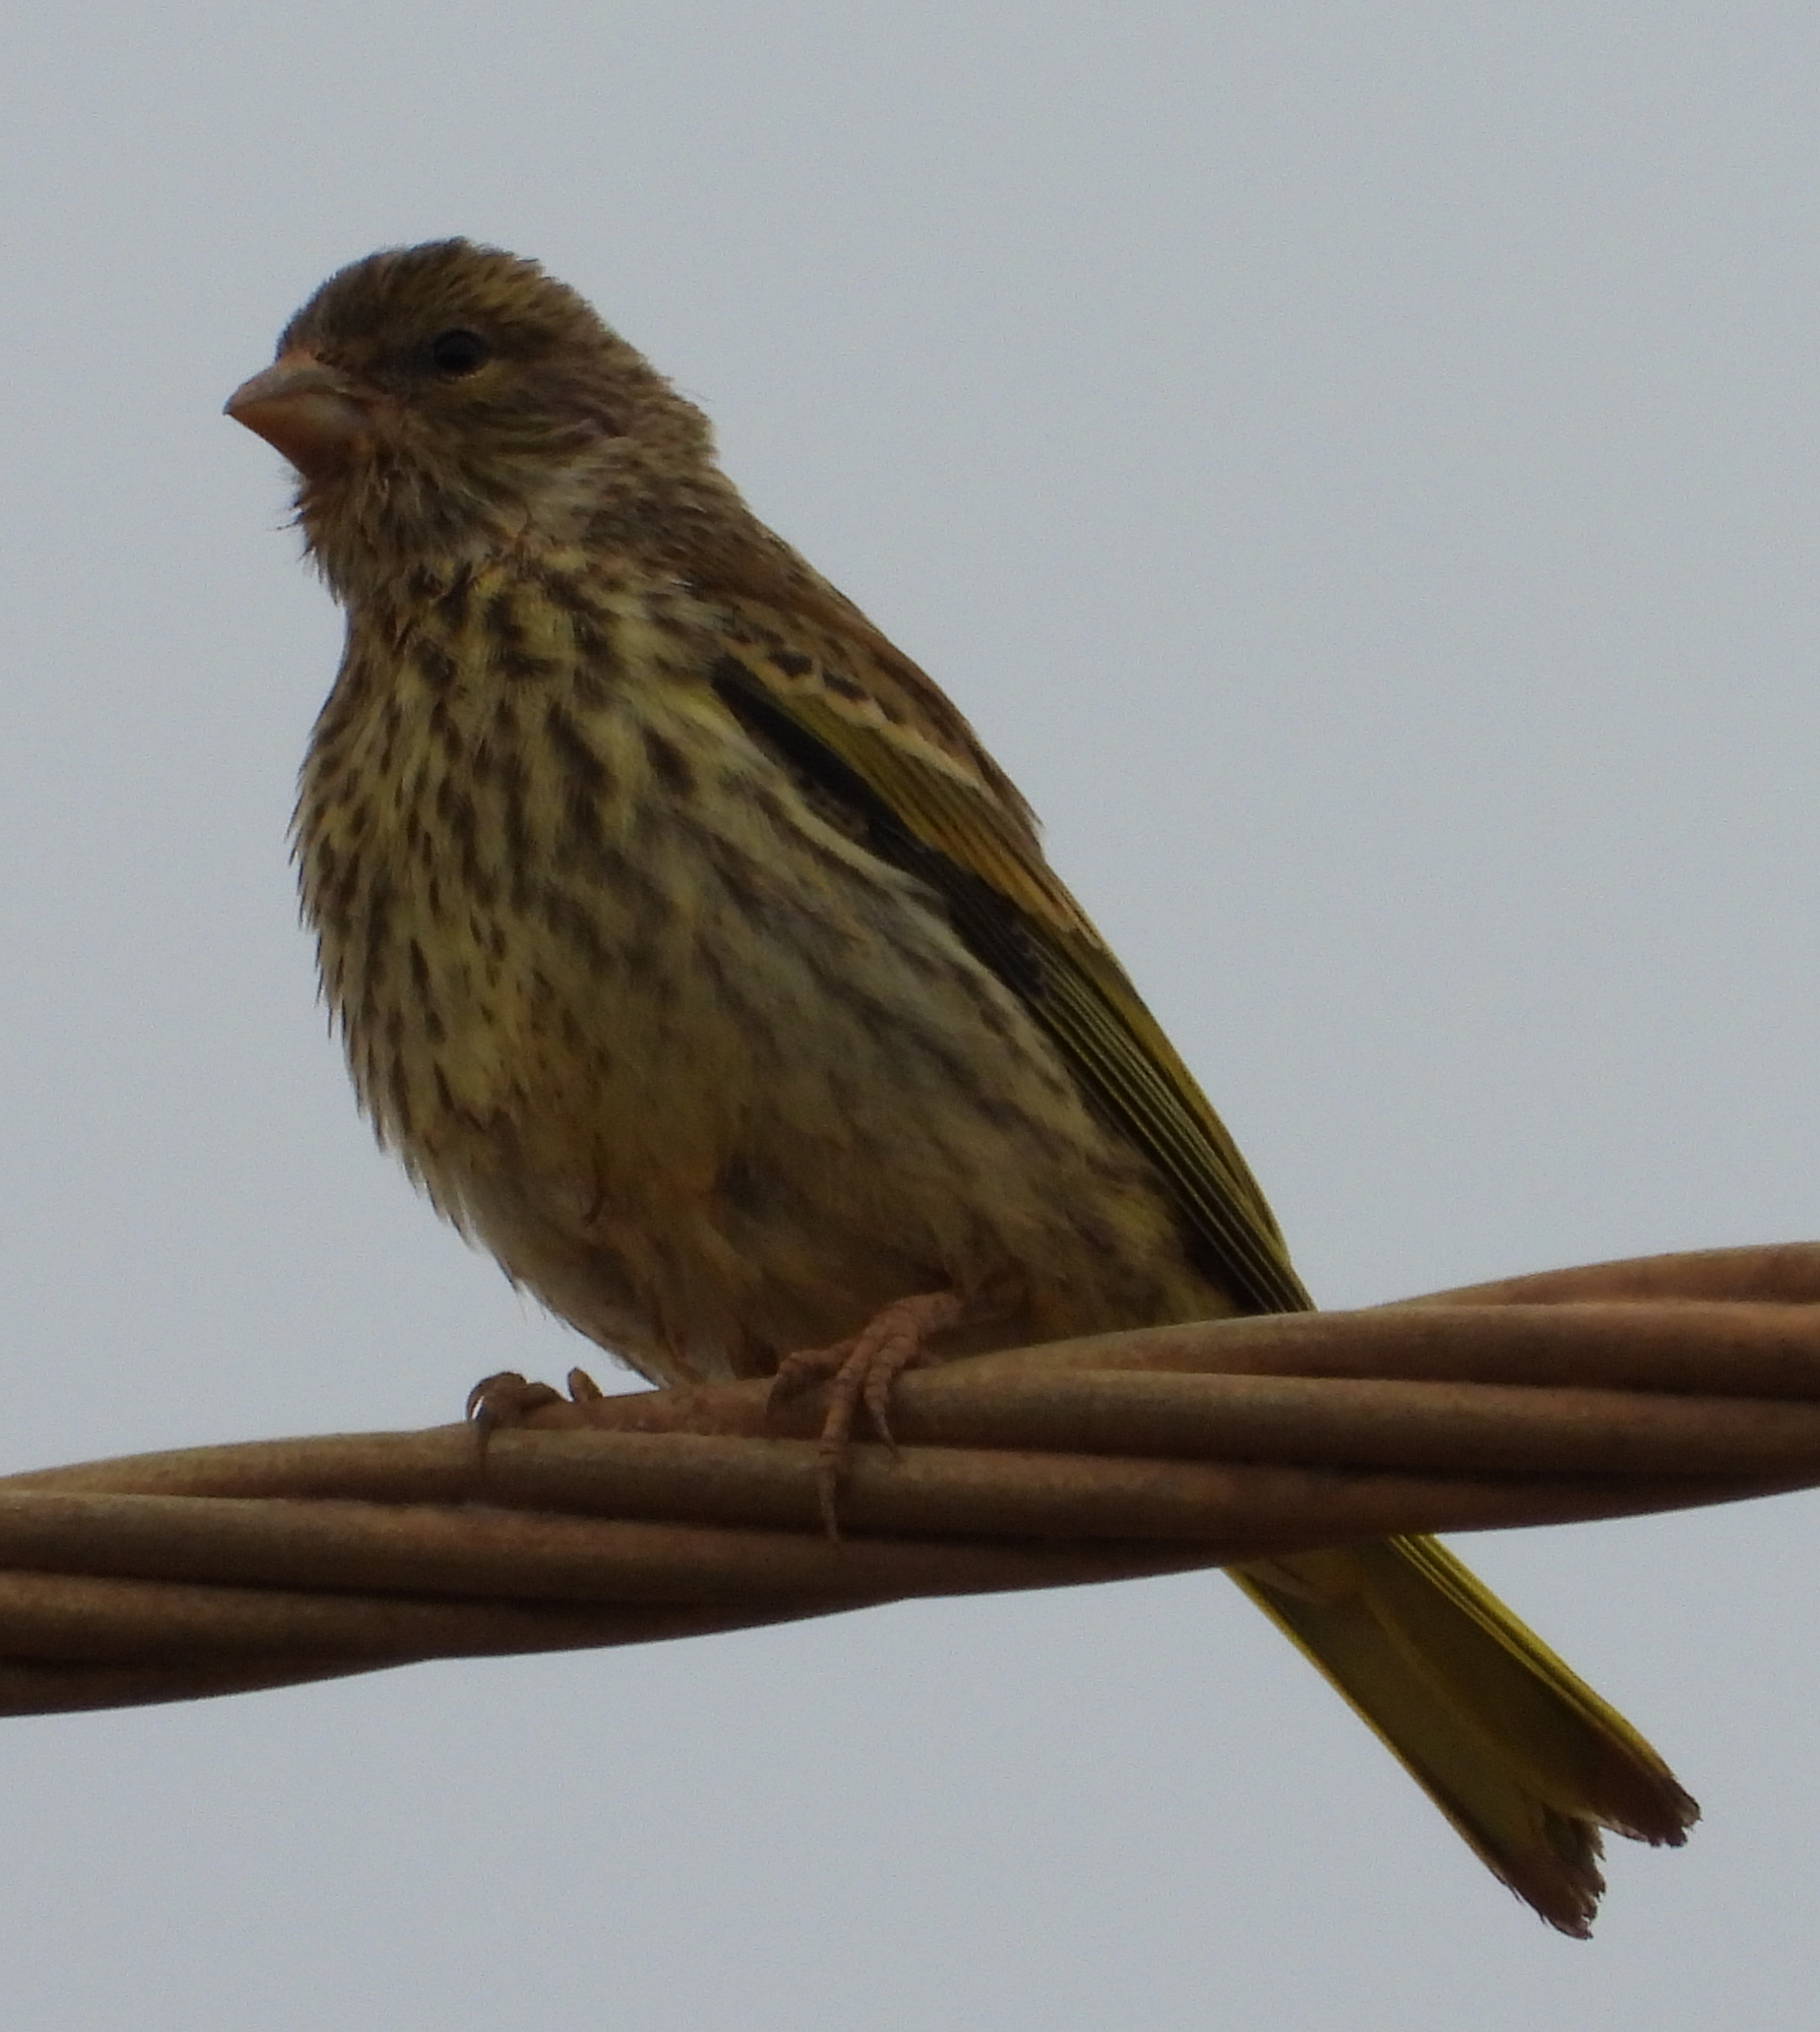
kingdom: Animalia
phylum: Chordata
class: Aves
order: Passeriformes
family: Fringillidae
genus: Serinus
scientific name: Serinus canicollis
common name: Cape canary
